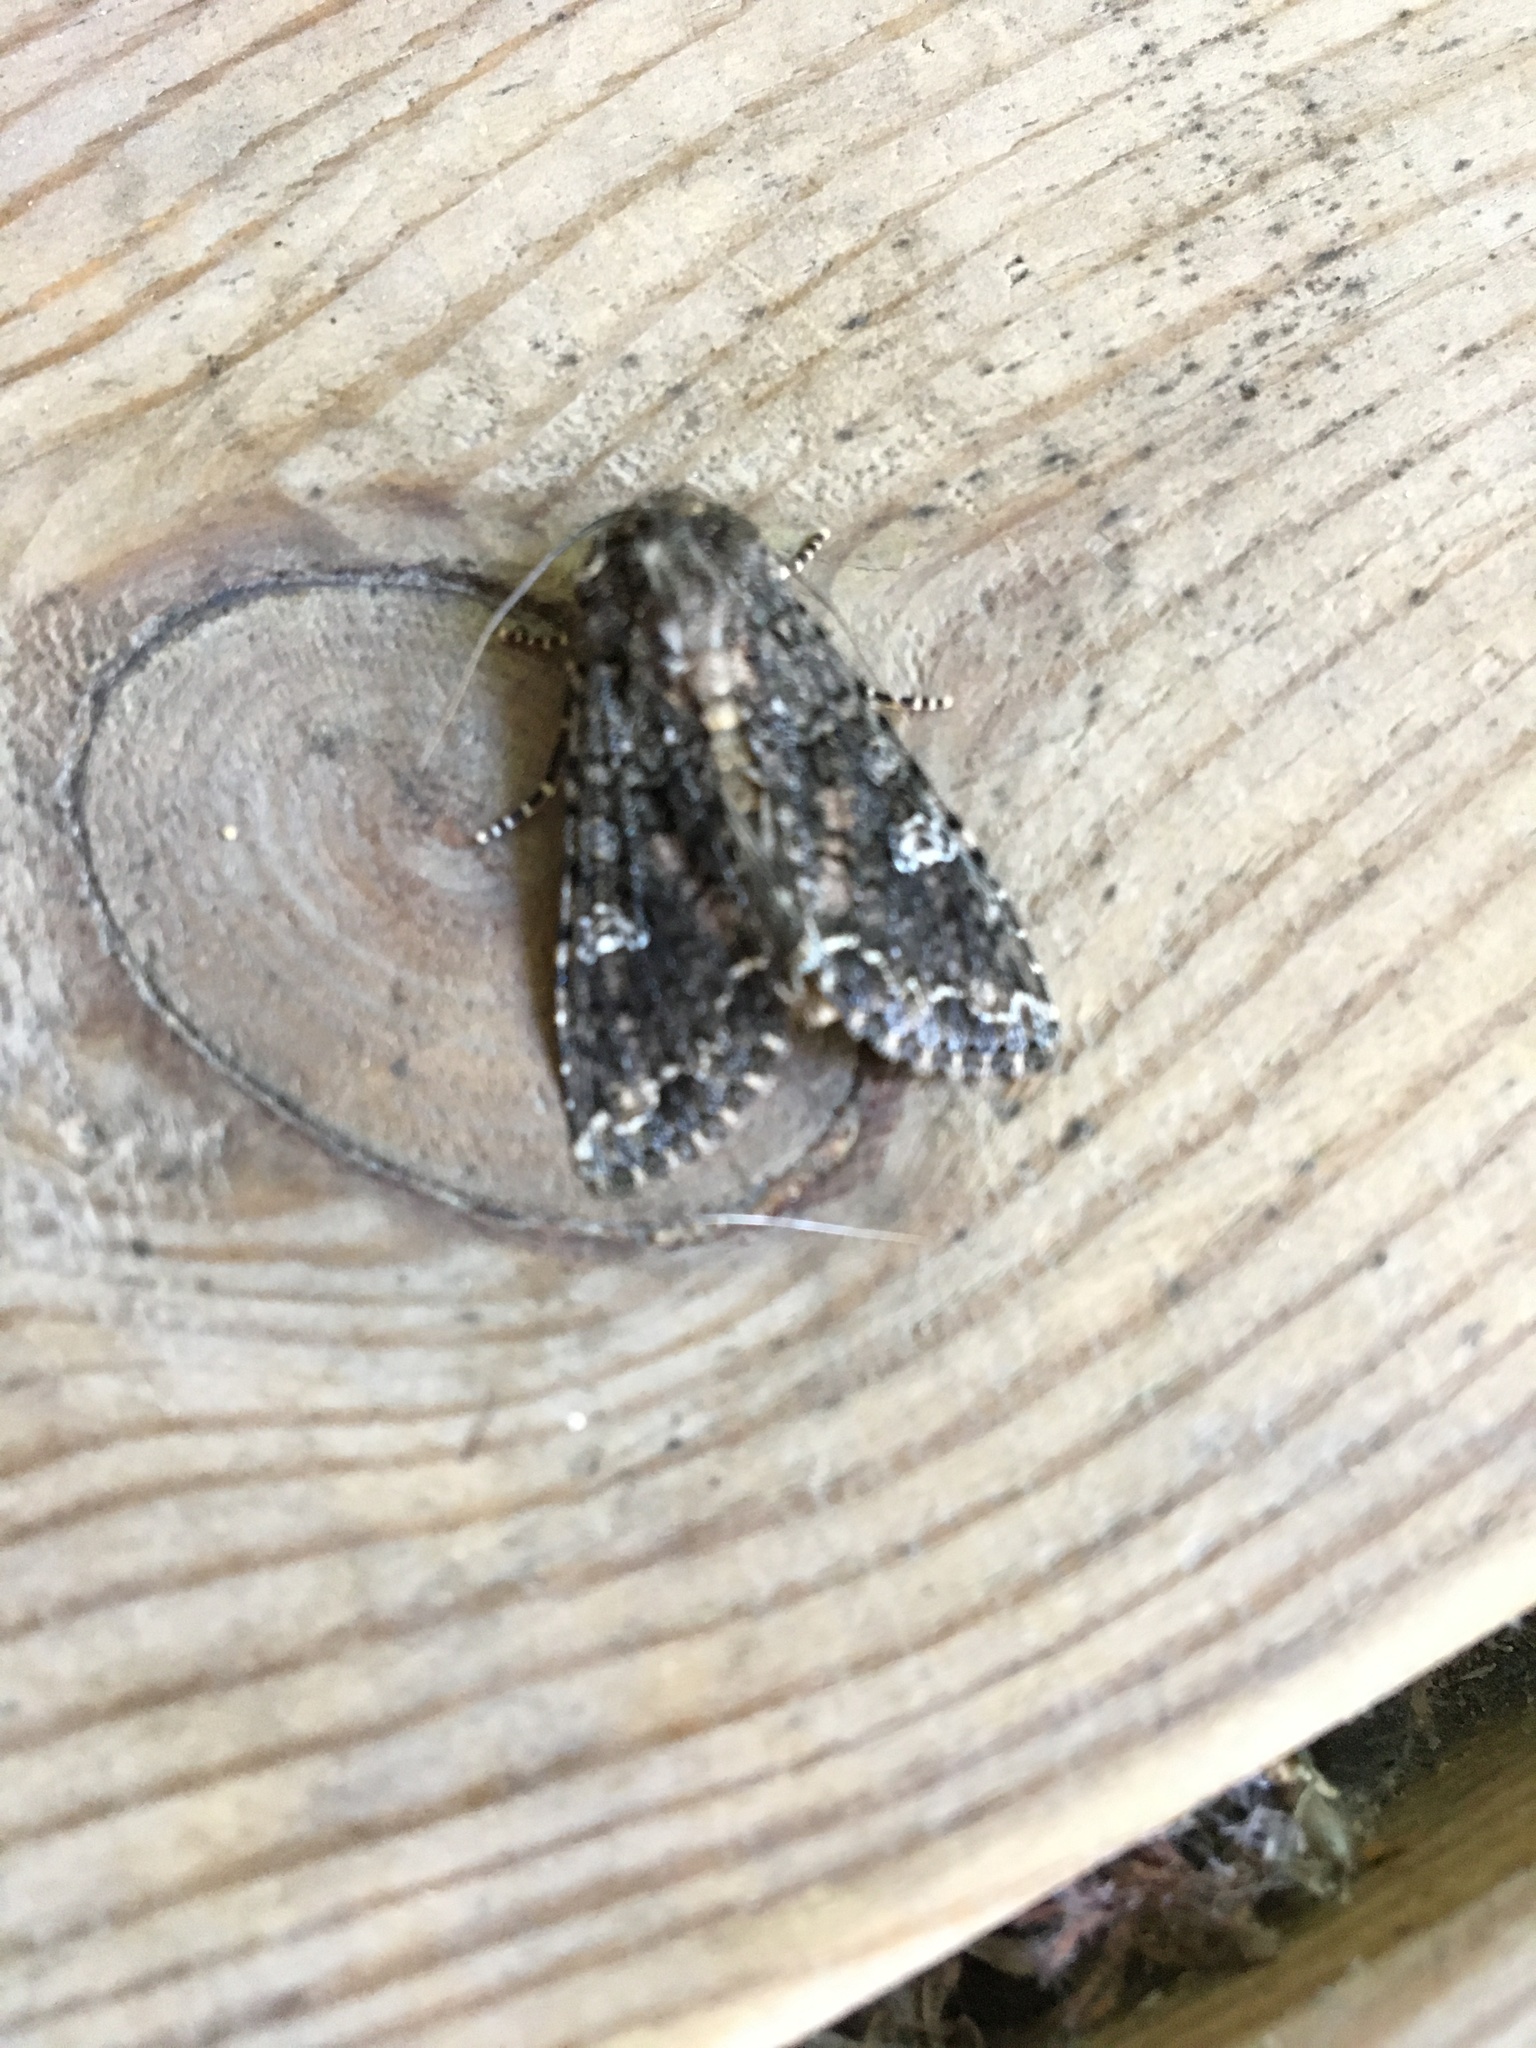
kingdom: Animalia
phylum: Arthropoda
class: Insecta
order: Lepidoptera
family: Noctuidae
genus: Mamestra
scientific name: Mamestra brassicae
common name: Cabbage moth
